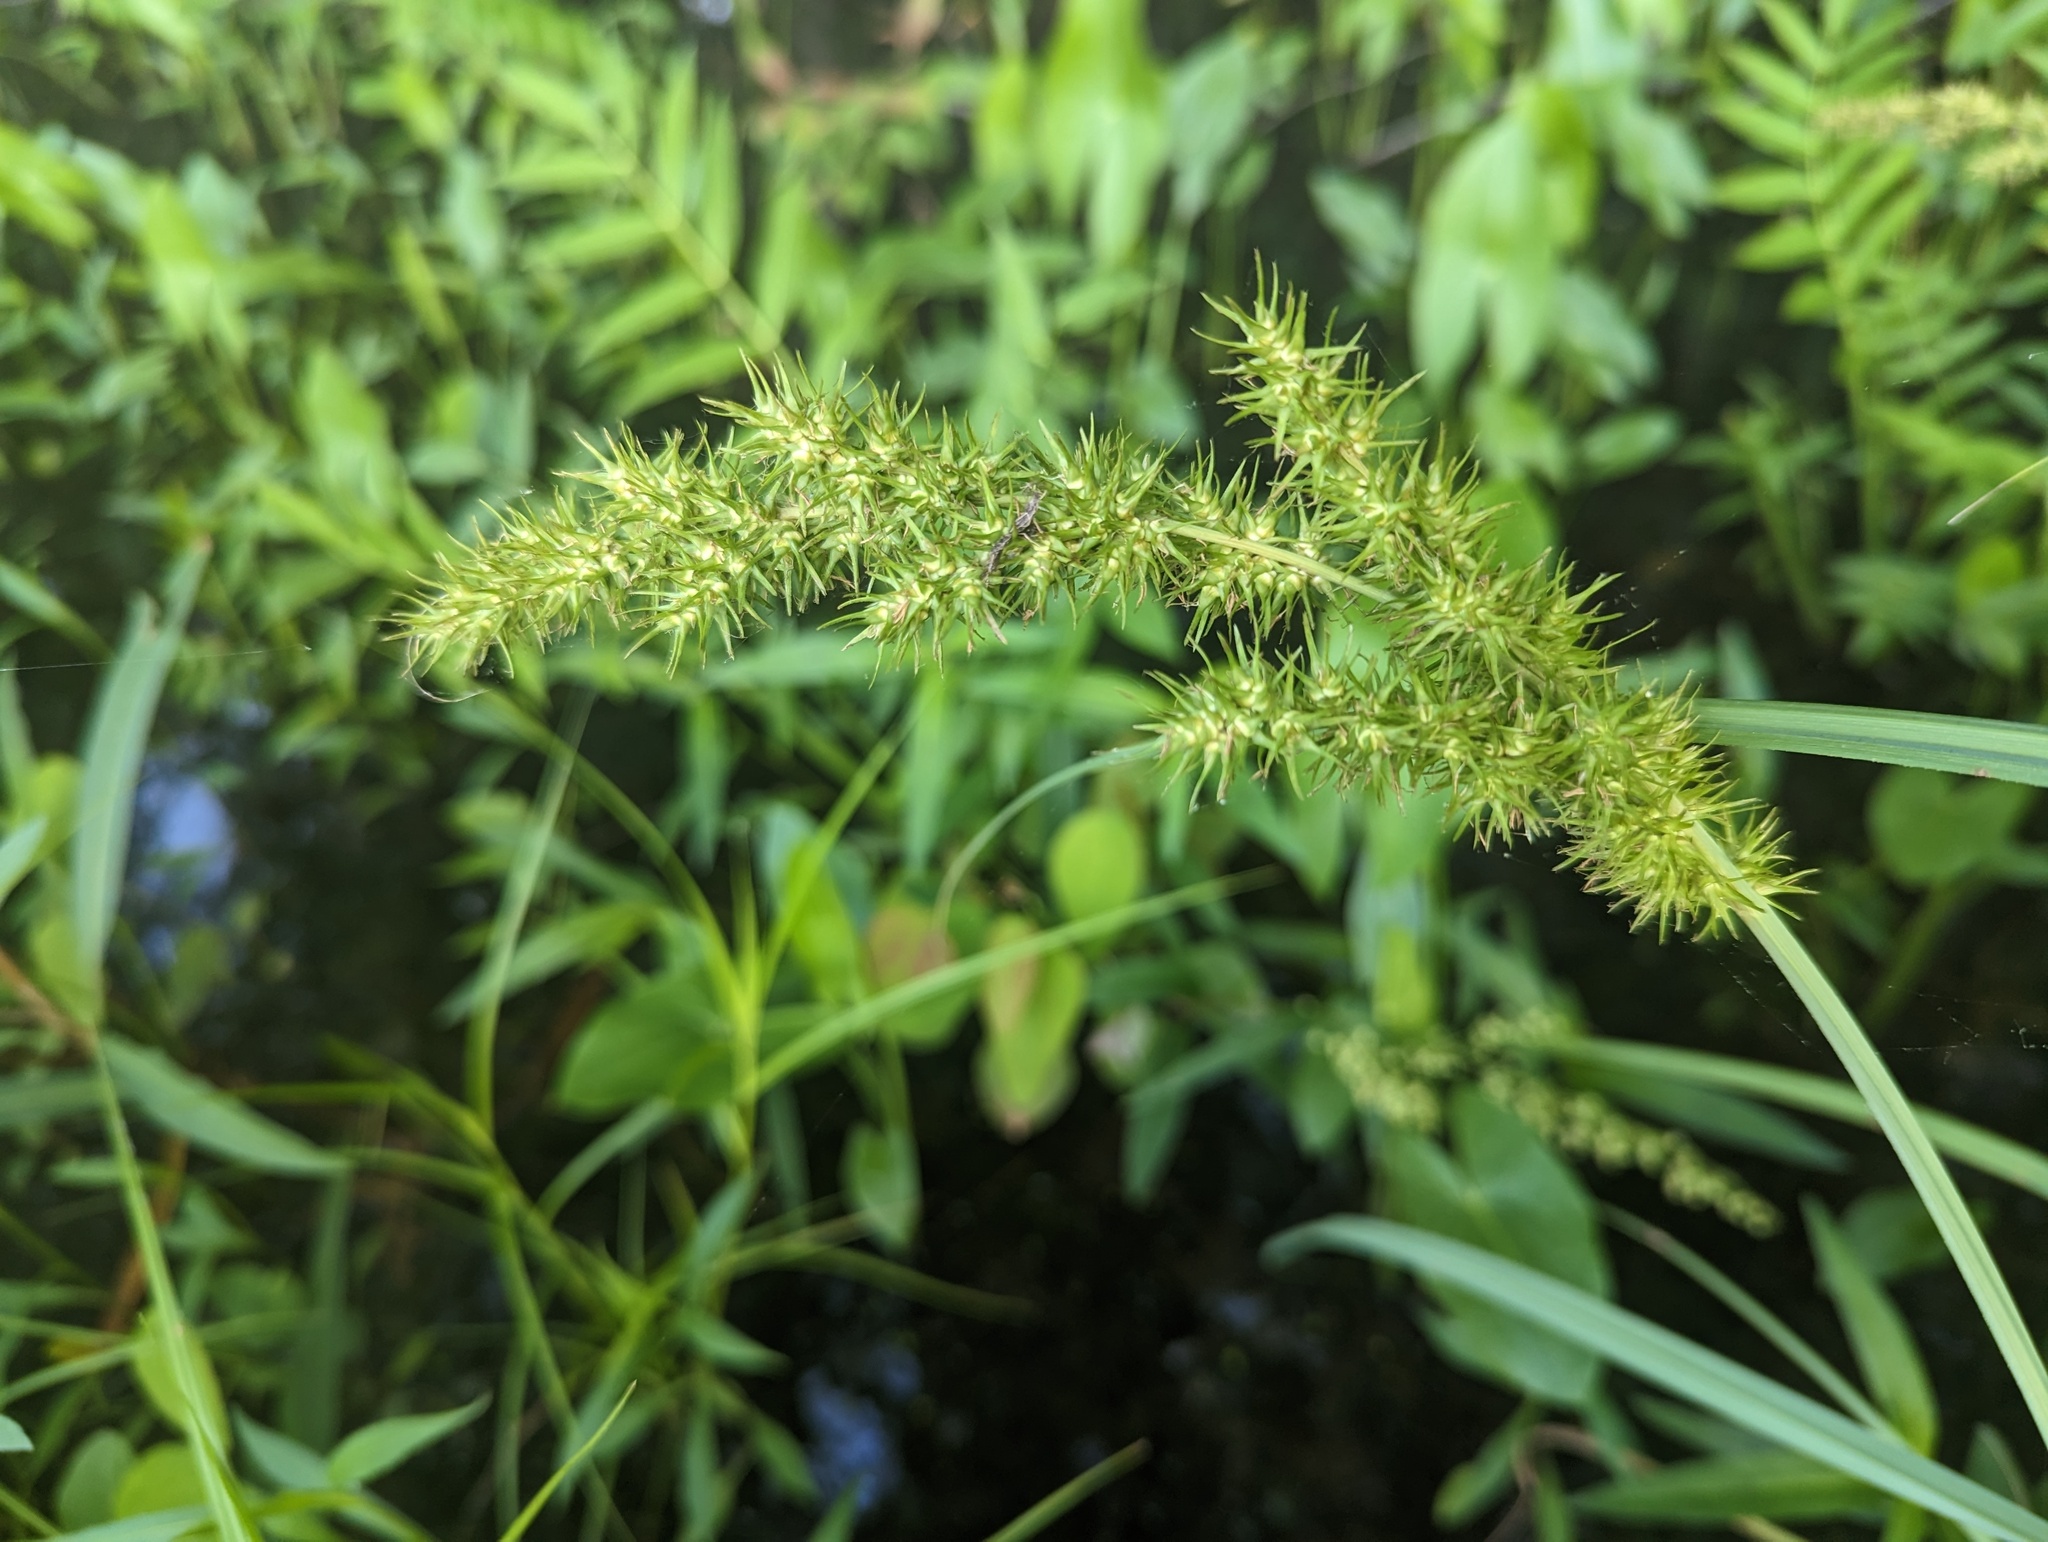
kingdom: Plantae
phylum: Tracheophyta
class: Liliopsida
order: Poales
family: Cyperaceae
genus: Carex
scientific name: Carex crus-corvi
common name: Crow-spur sedge
